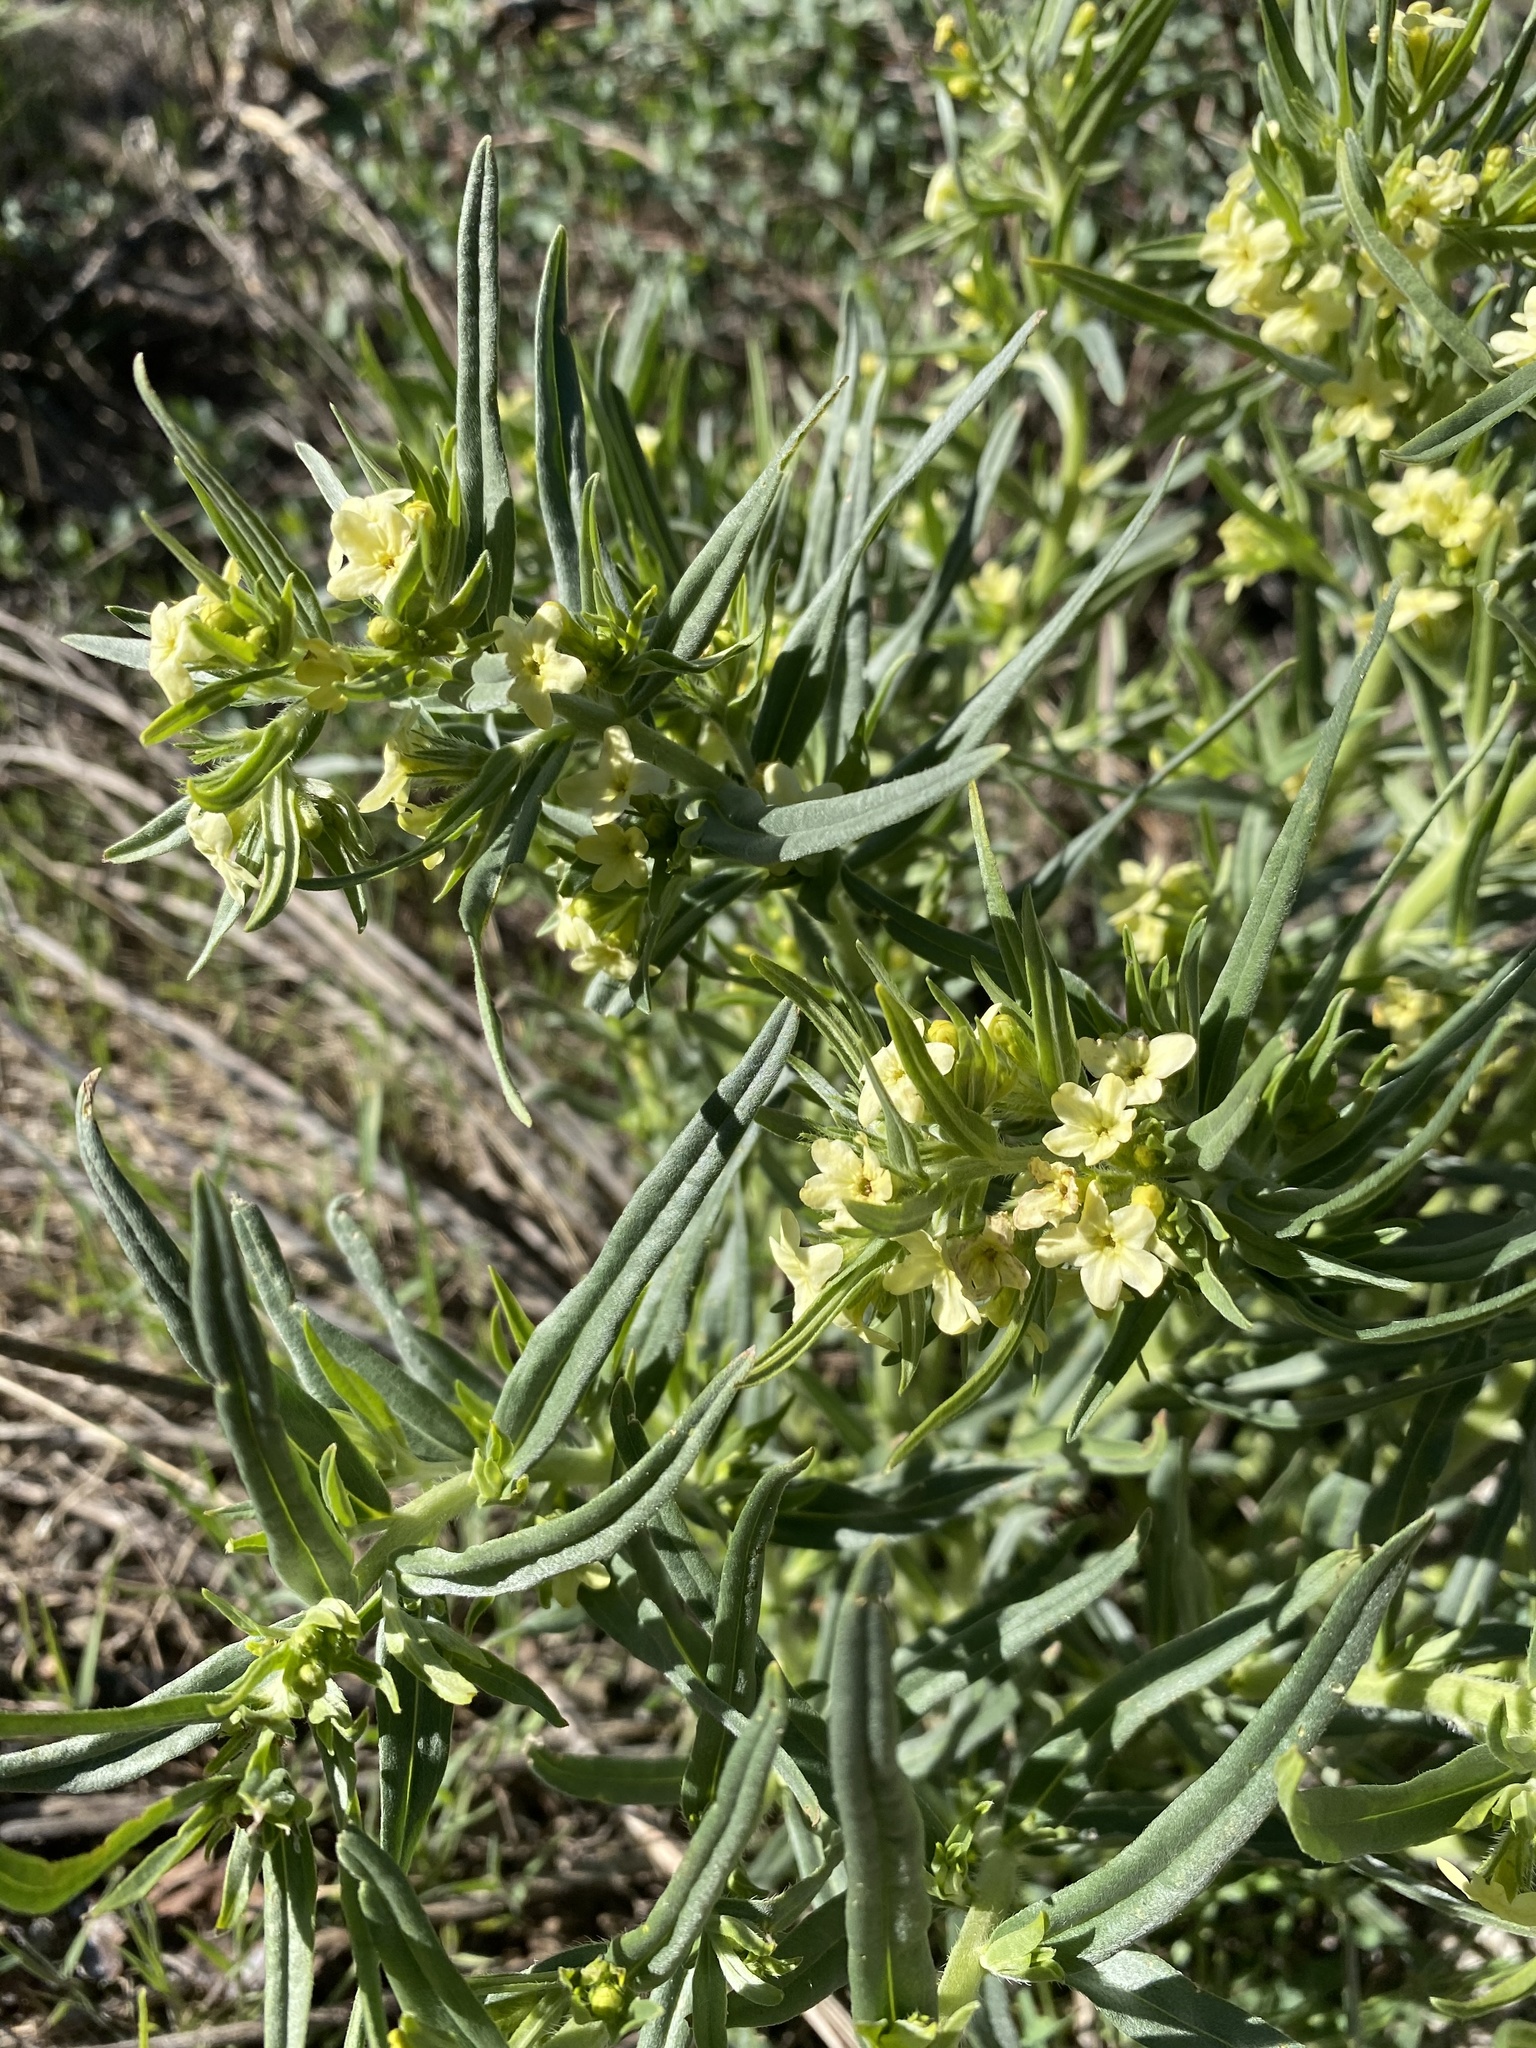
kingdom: Plantae
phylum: Tracheophyta
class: Magnoliopsida
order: Boraginales
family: Boraginaceae
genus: Lithospermum
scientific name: Lithospermum ruderale
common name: Western gromwell
